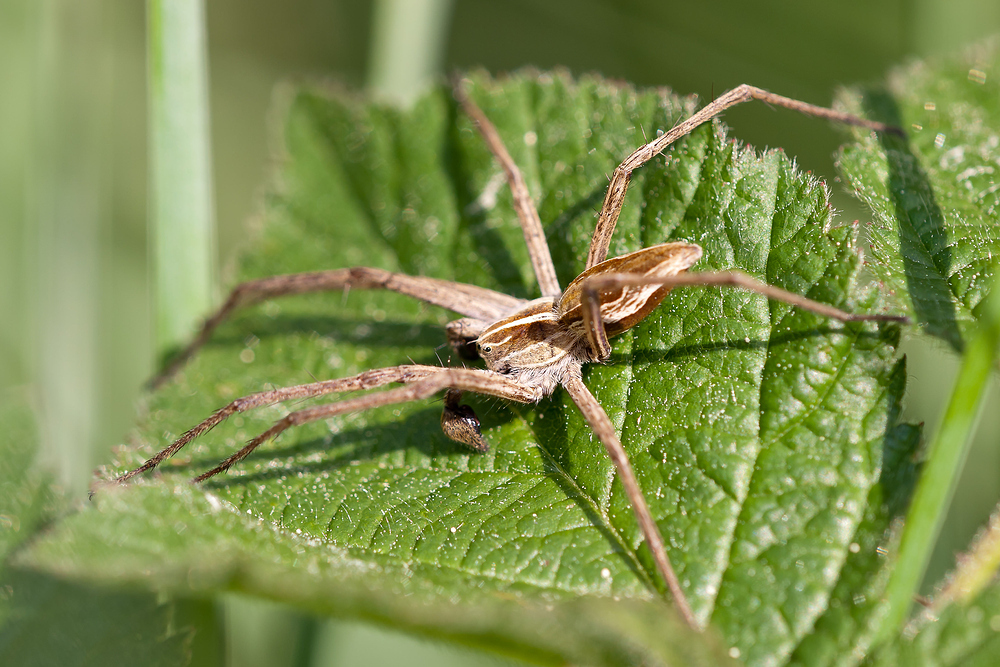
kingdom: Animalia
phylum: Arthropoda
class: Arachnida
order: Araneae
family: Pisauridae
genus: Pisaura
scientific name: Pisaura mirabilis
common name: Tent spider
